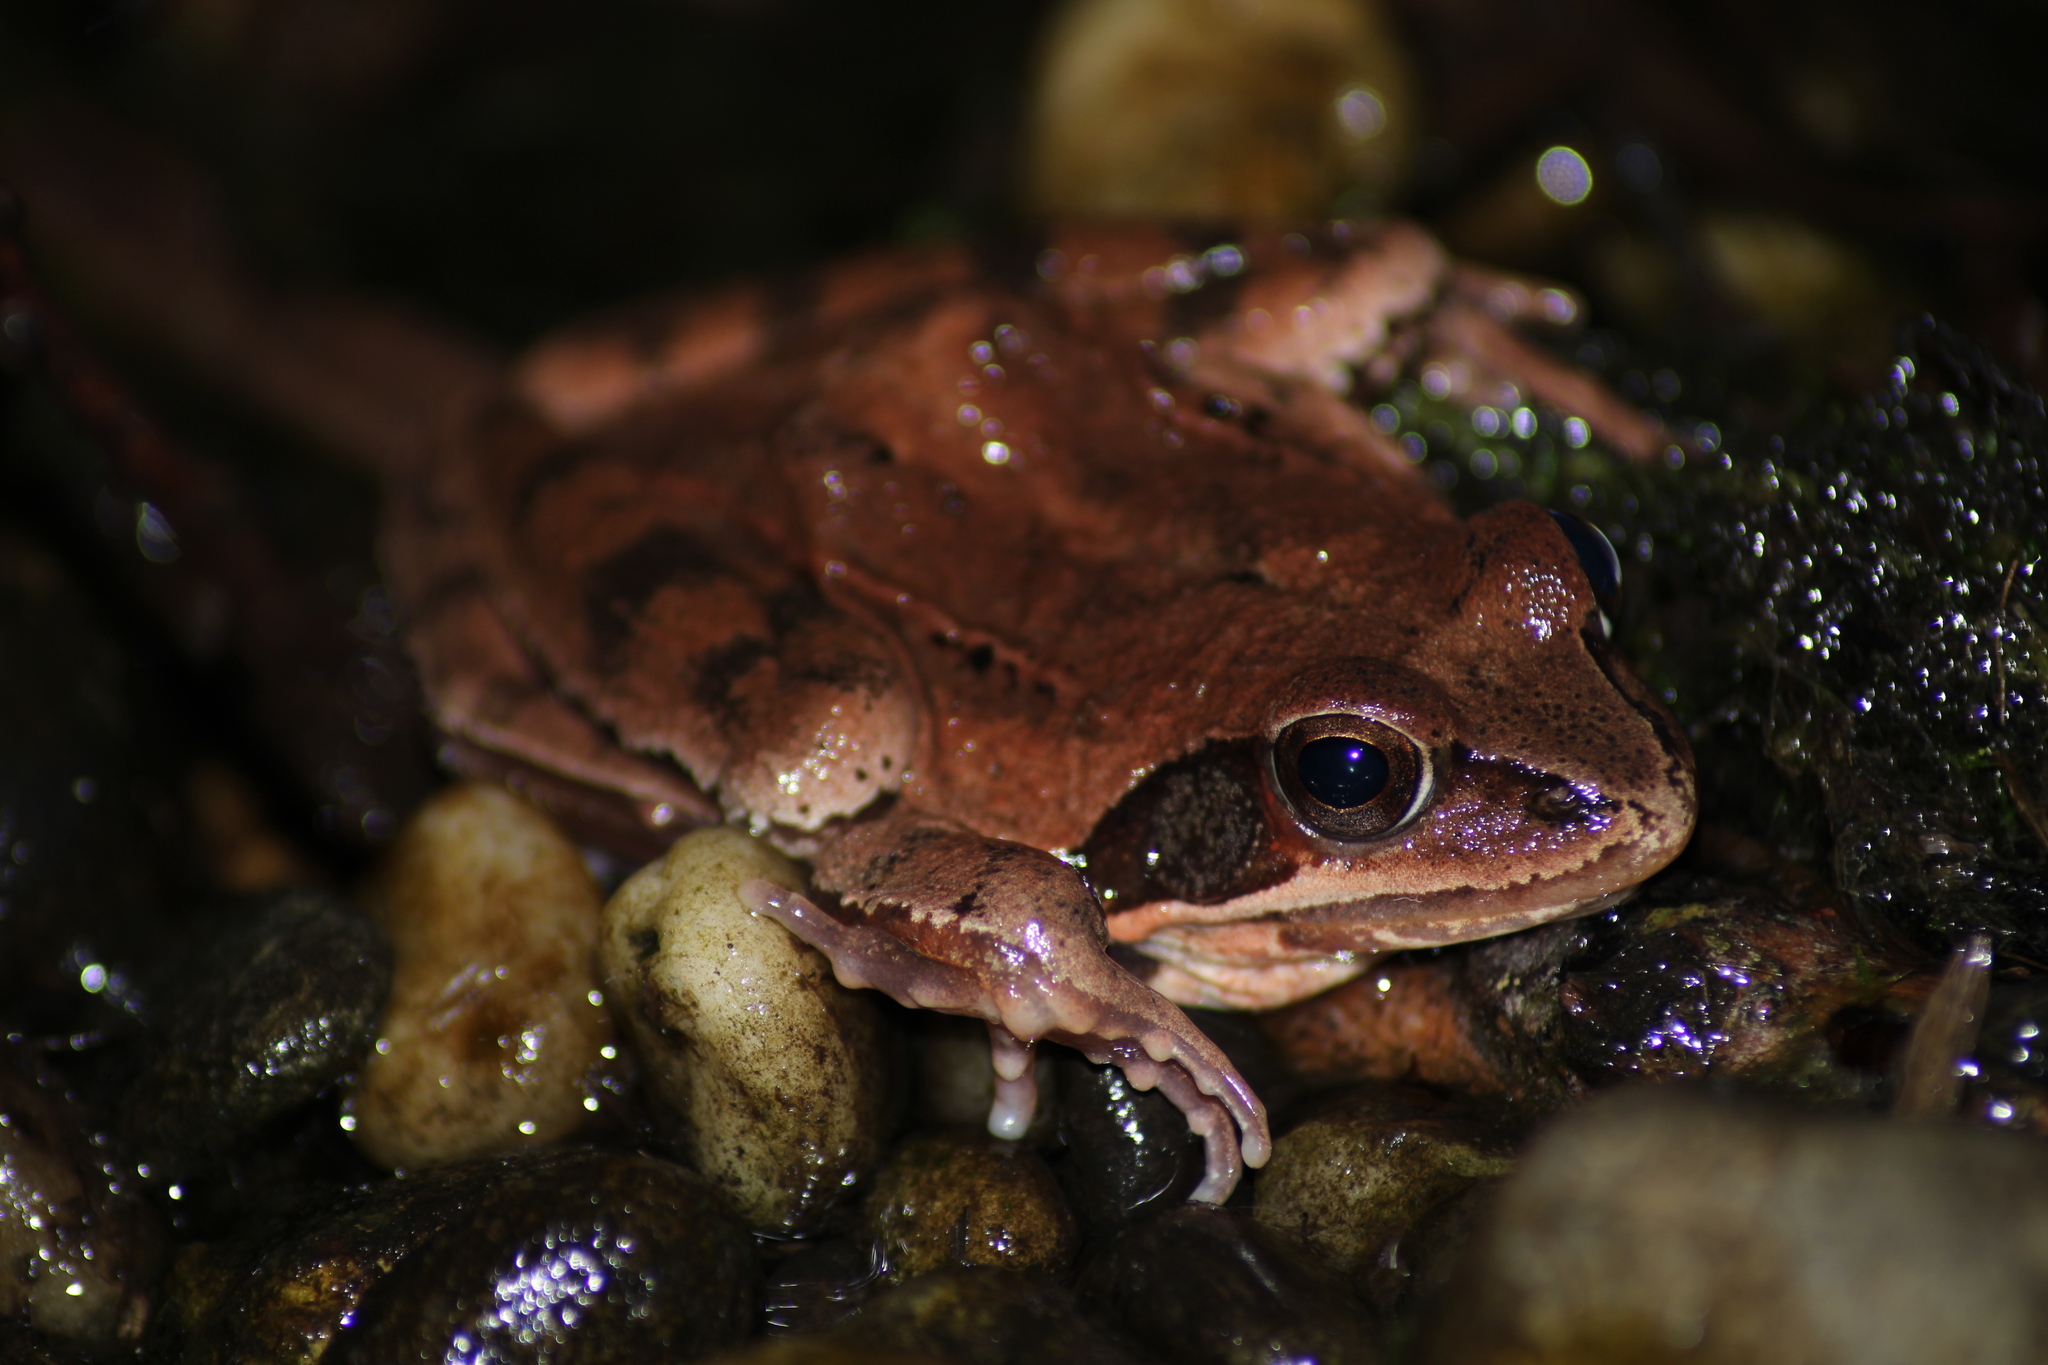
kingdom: Animalia
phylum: Chordata
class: Amphibia
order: Anura
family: Ranidae
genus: Rana
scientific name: Rana dalmatina
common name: Agile frog
